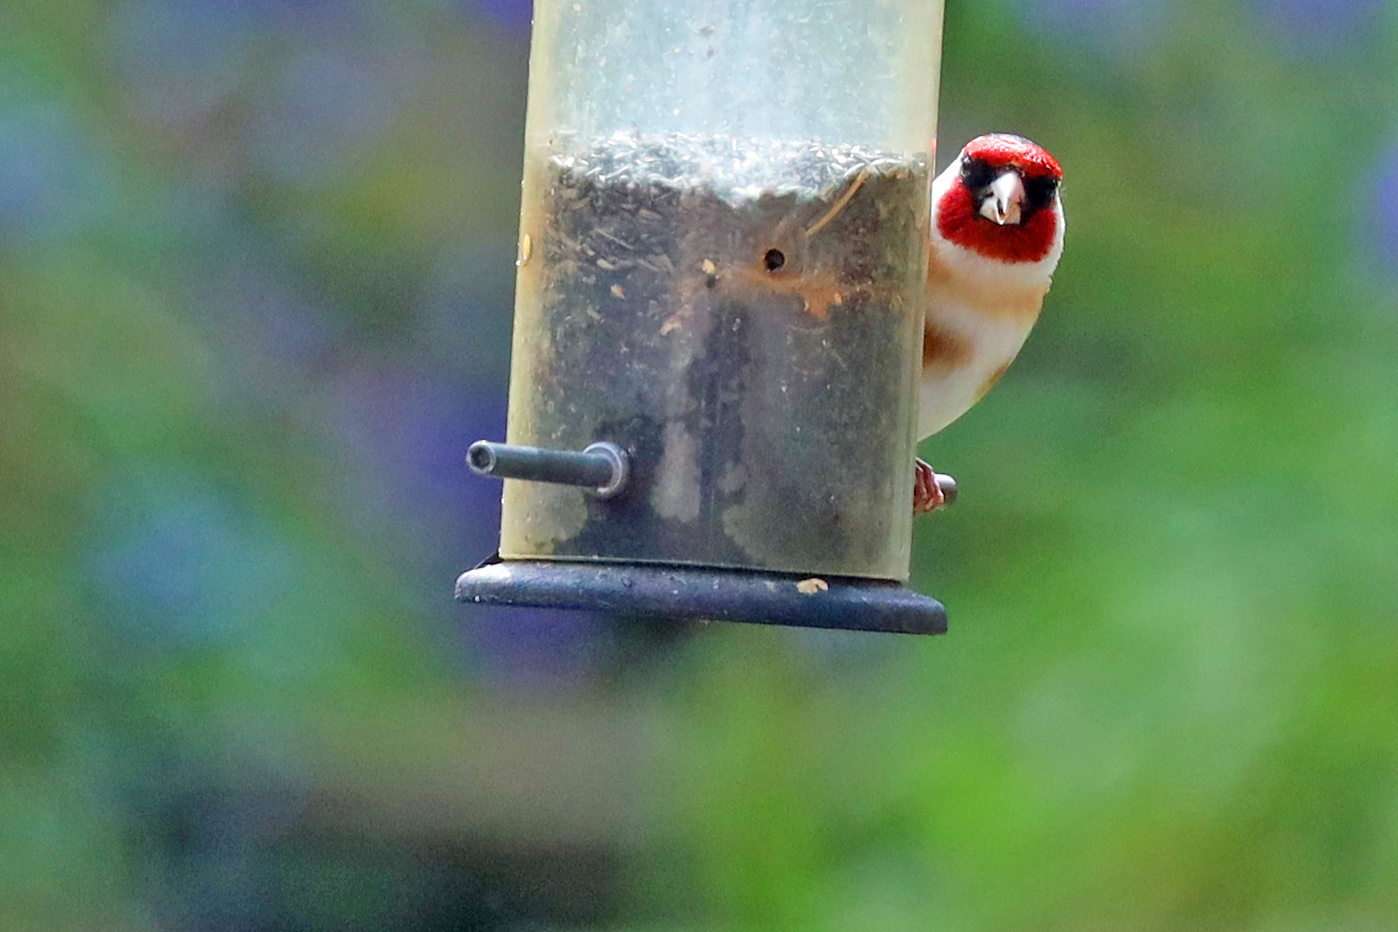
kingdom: Animalia
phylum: Chordata
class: Aves
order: Passeriformes
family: Fringillidae
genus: Carduelis
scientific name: Carduelis carduelis
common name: European goldfinch
